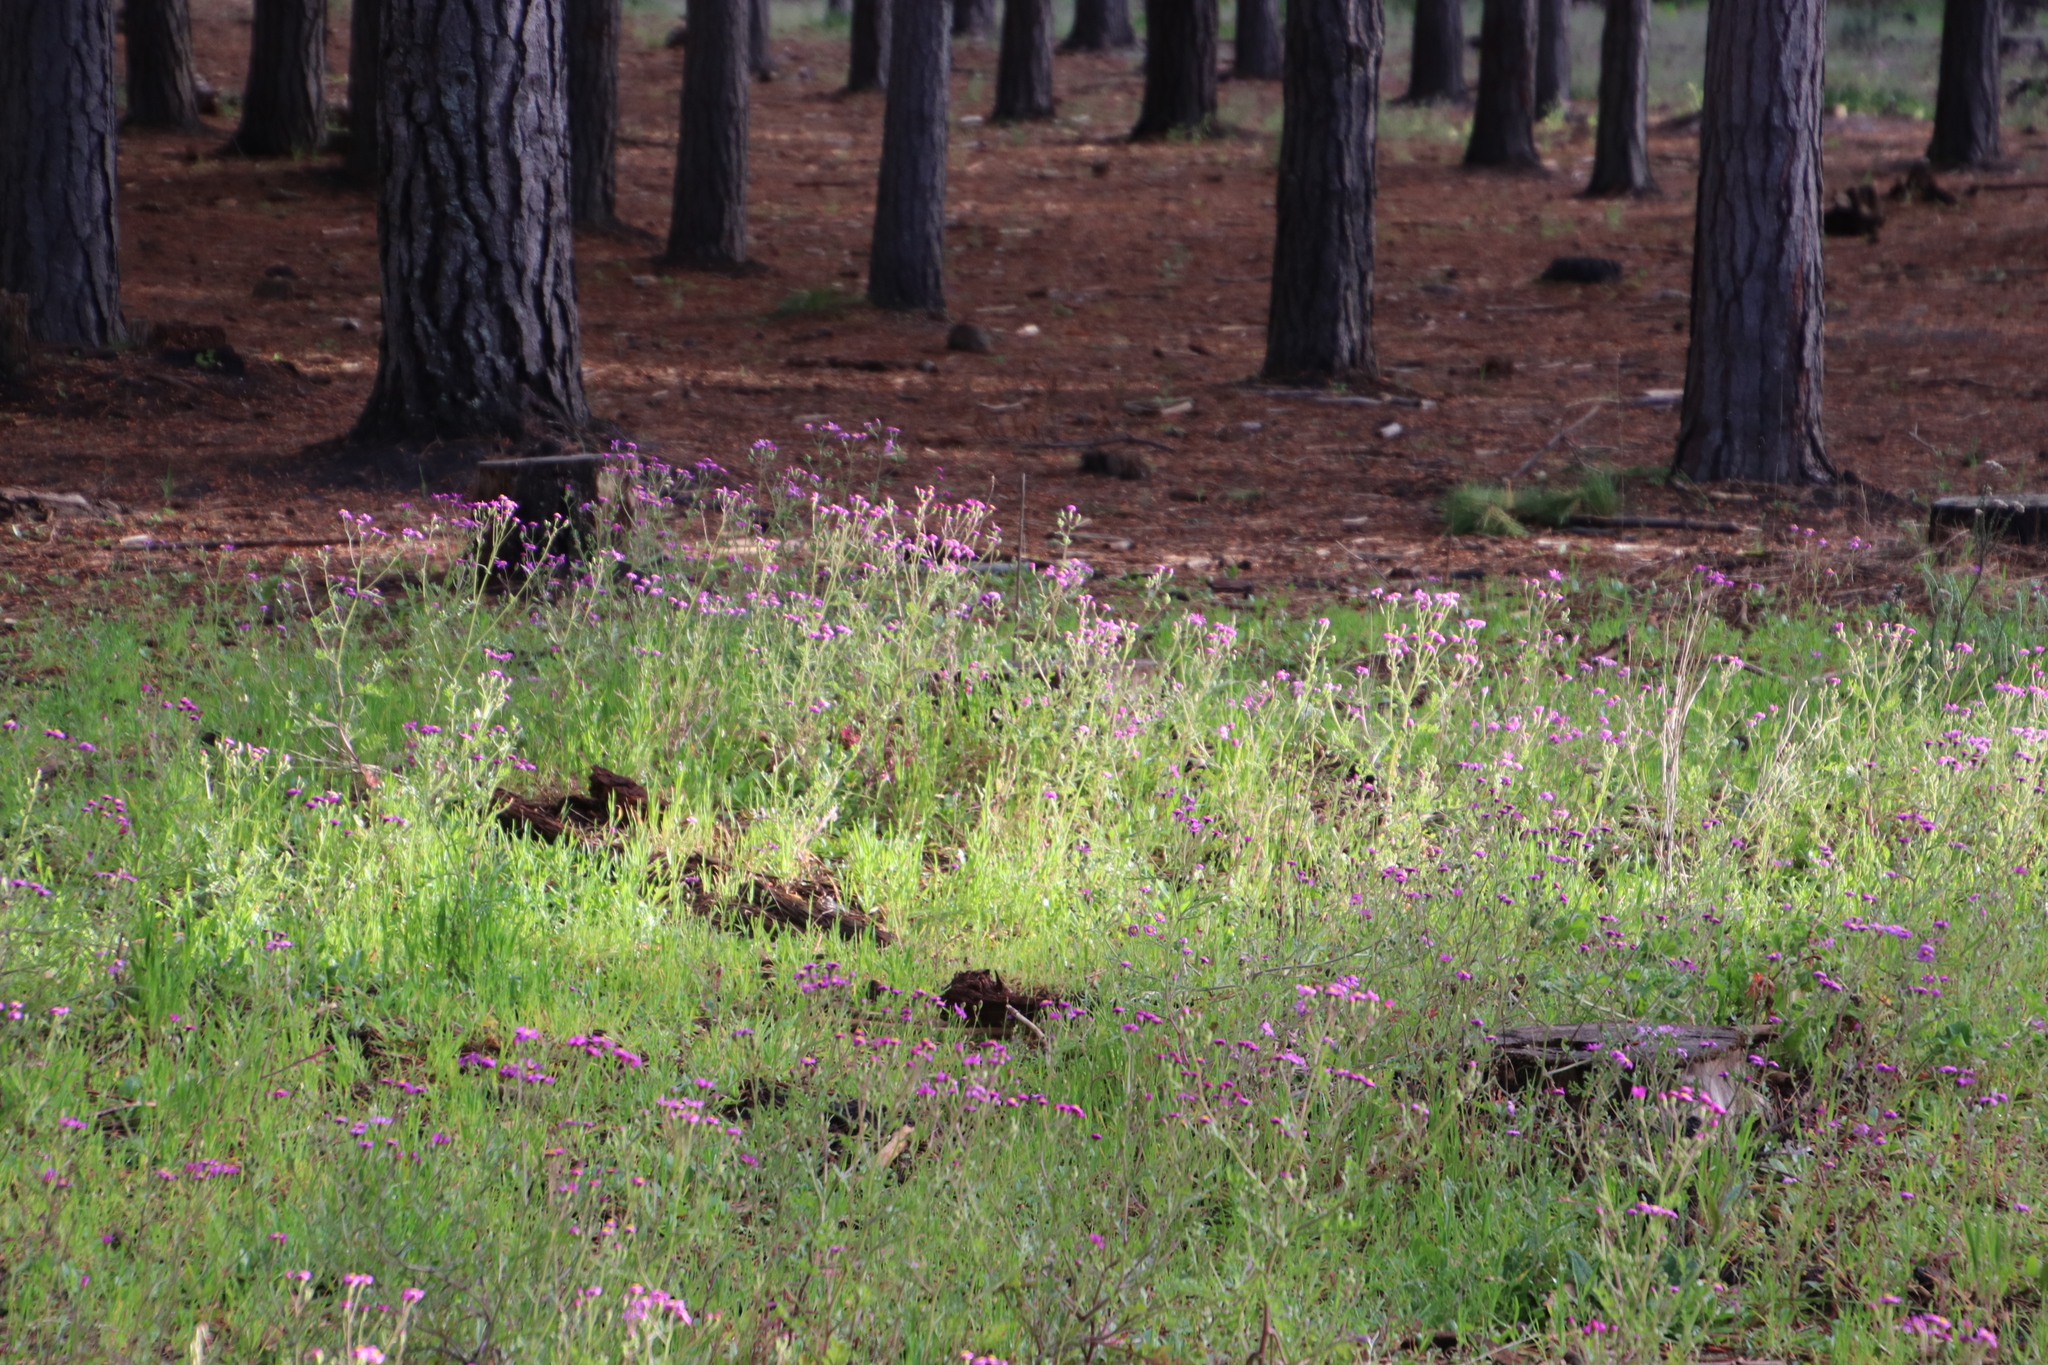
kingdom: Plantae
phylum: Tracheophyta
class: Magnoliopsida
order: Asterales
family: Asteraceae
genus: Senecio
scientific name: Senecio arenarius
